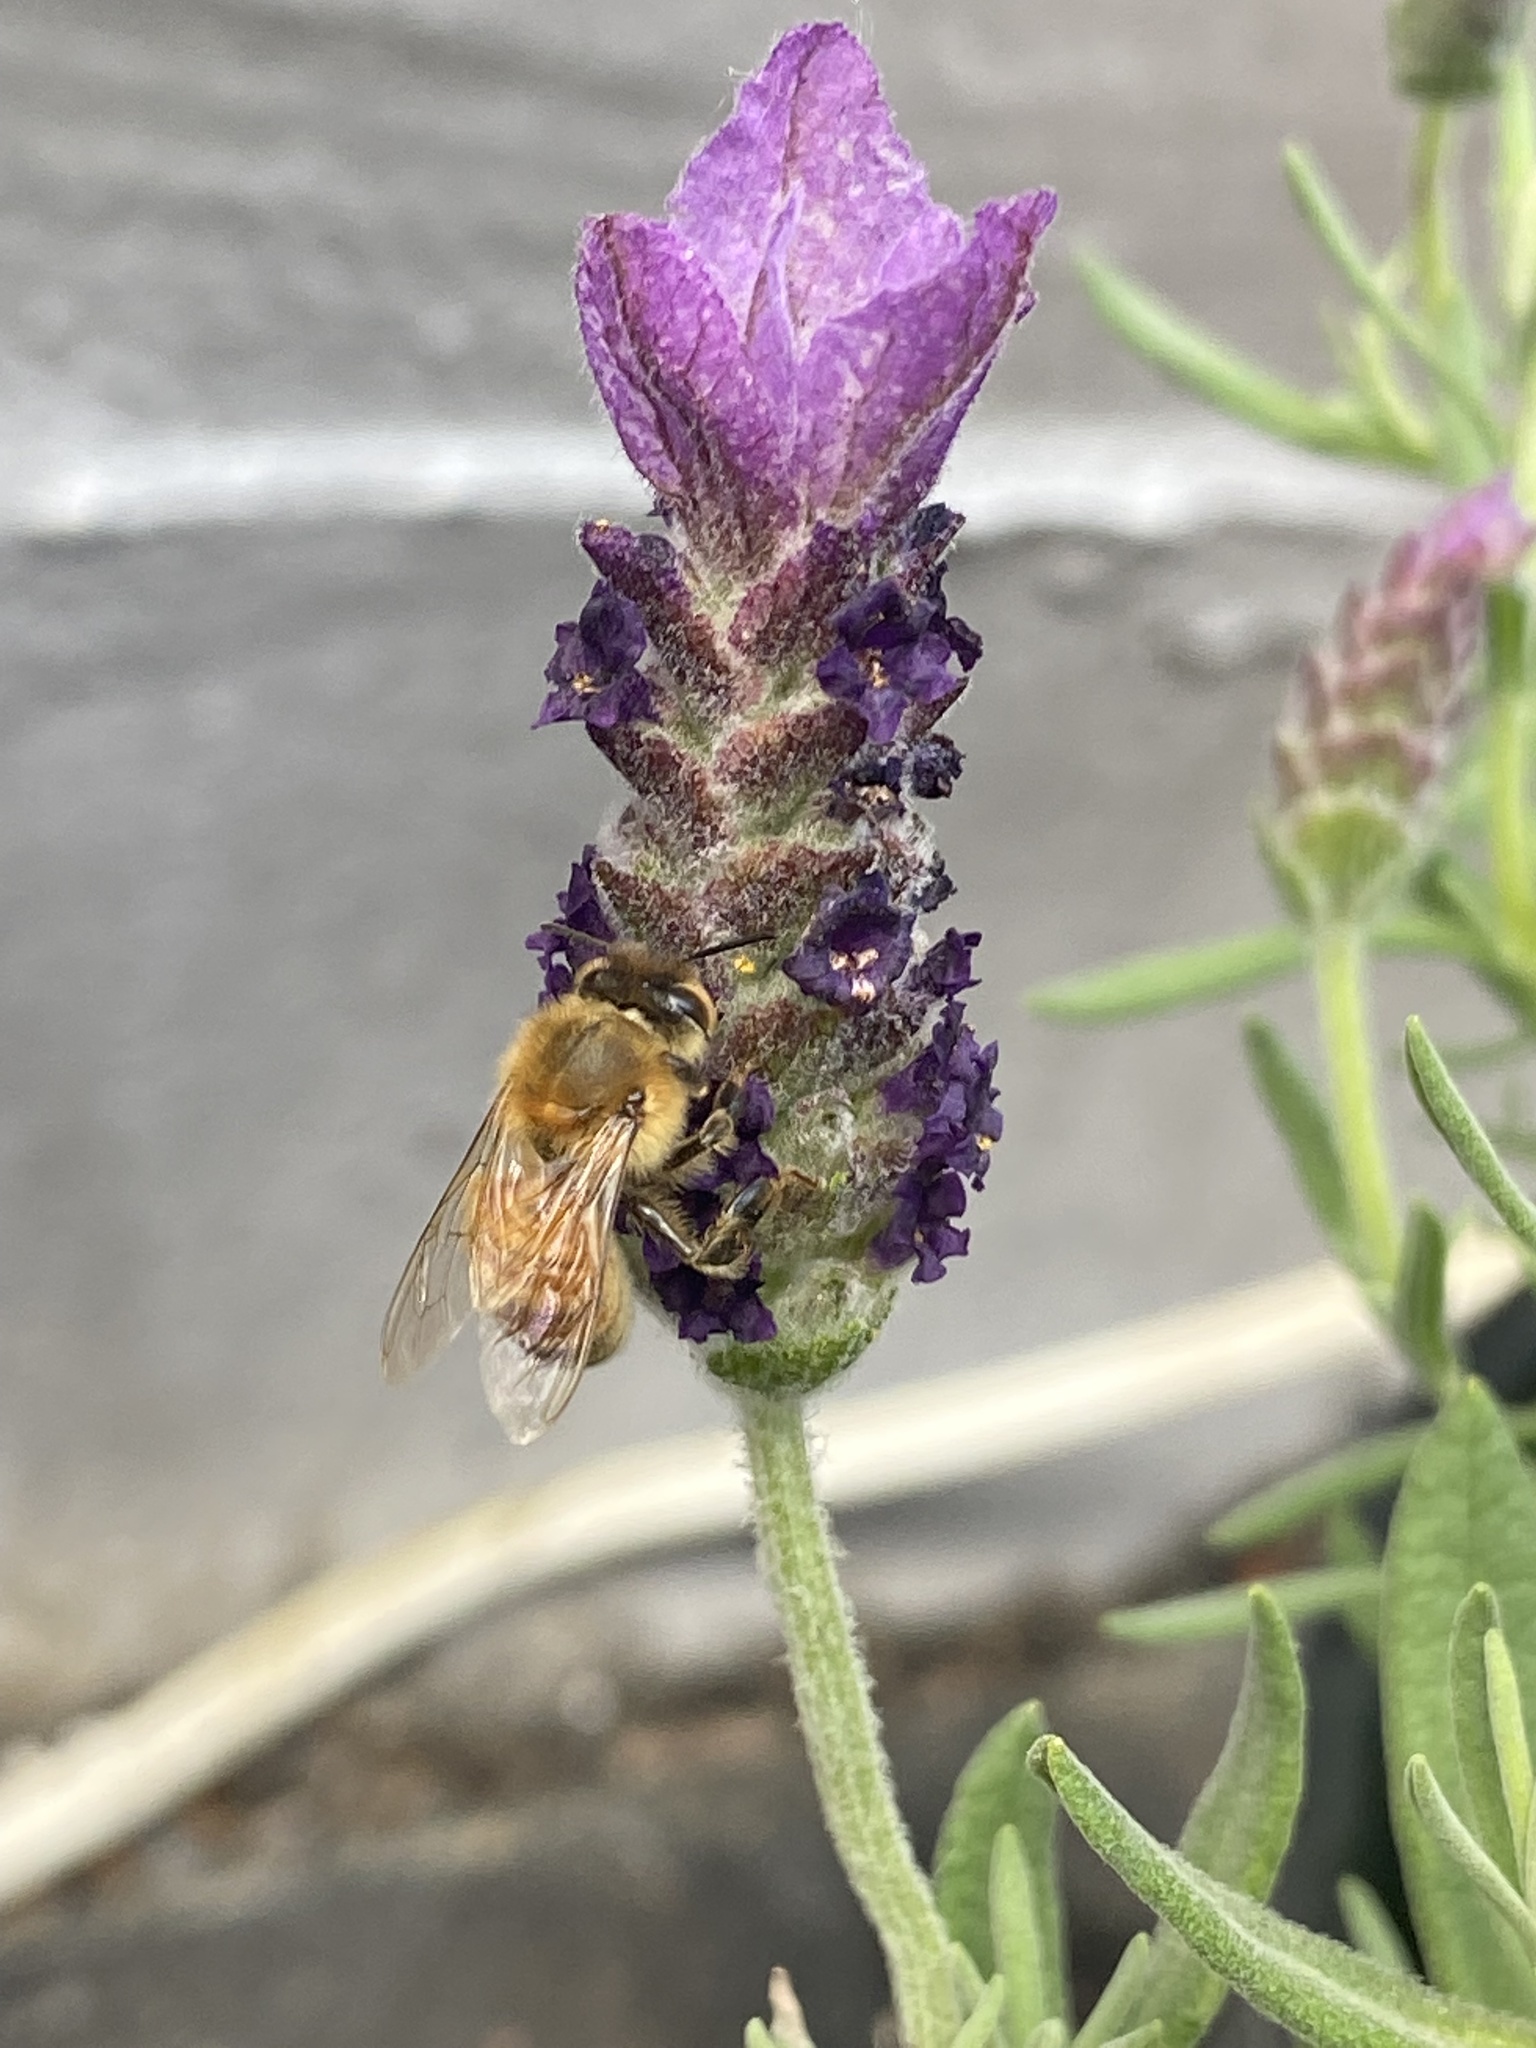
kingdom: Animalia
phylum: Arthropoda
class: Insecta
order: Hymenoptera
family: Apidae
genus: Apis
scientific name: Apis mellifera
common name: Honey bee
